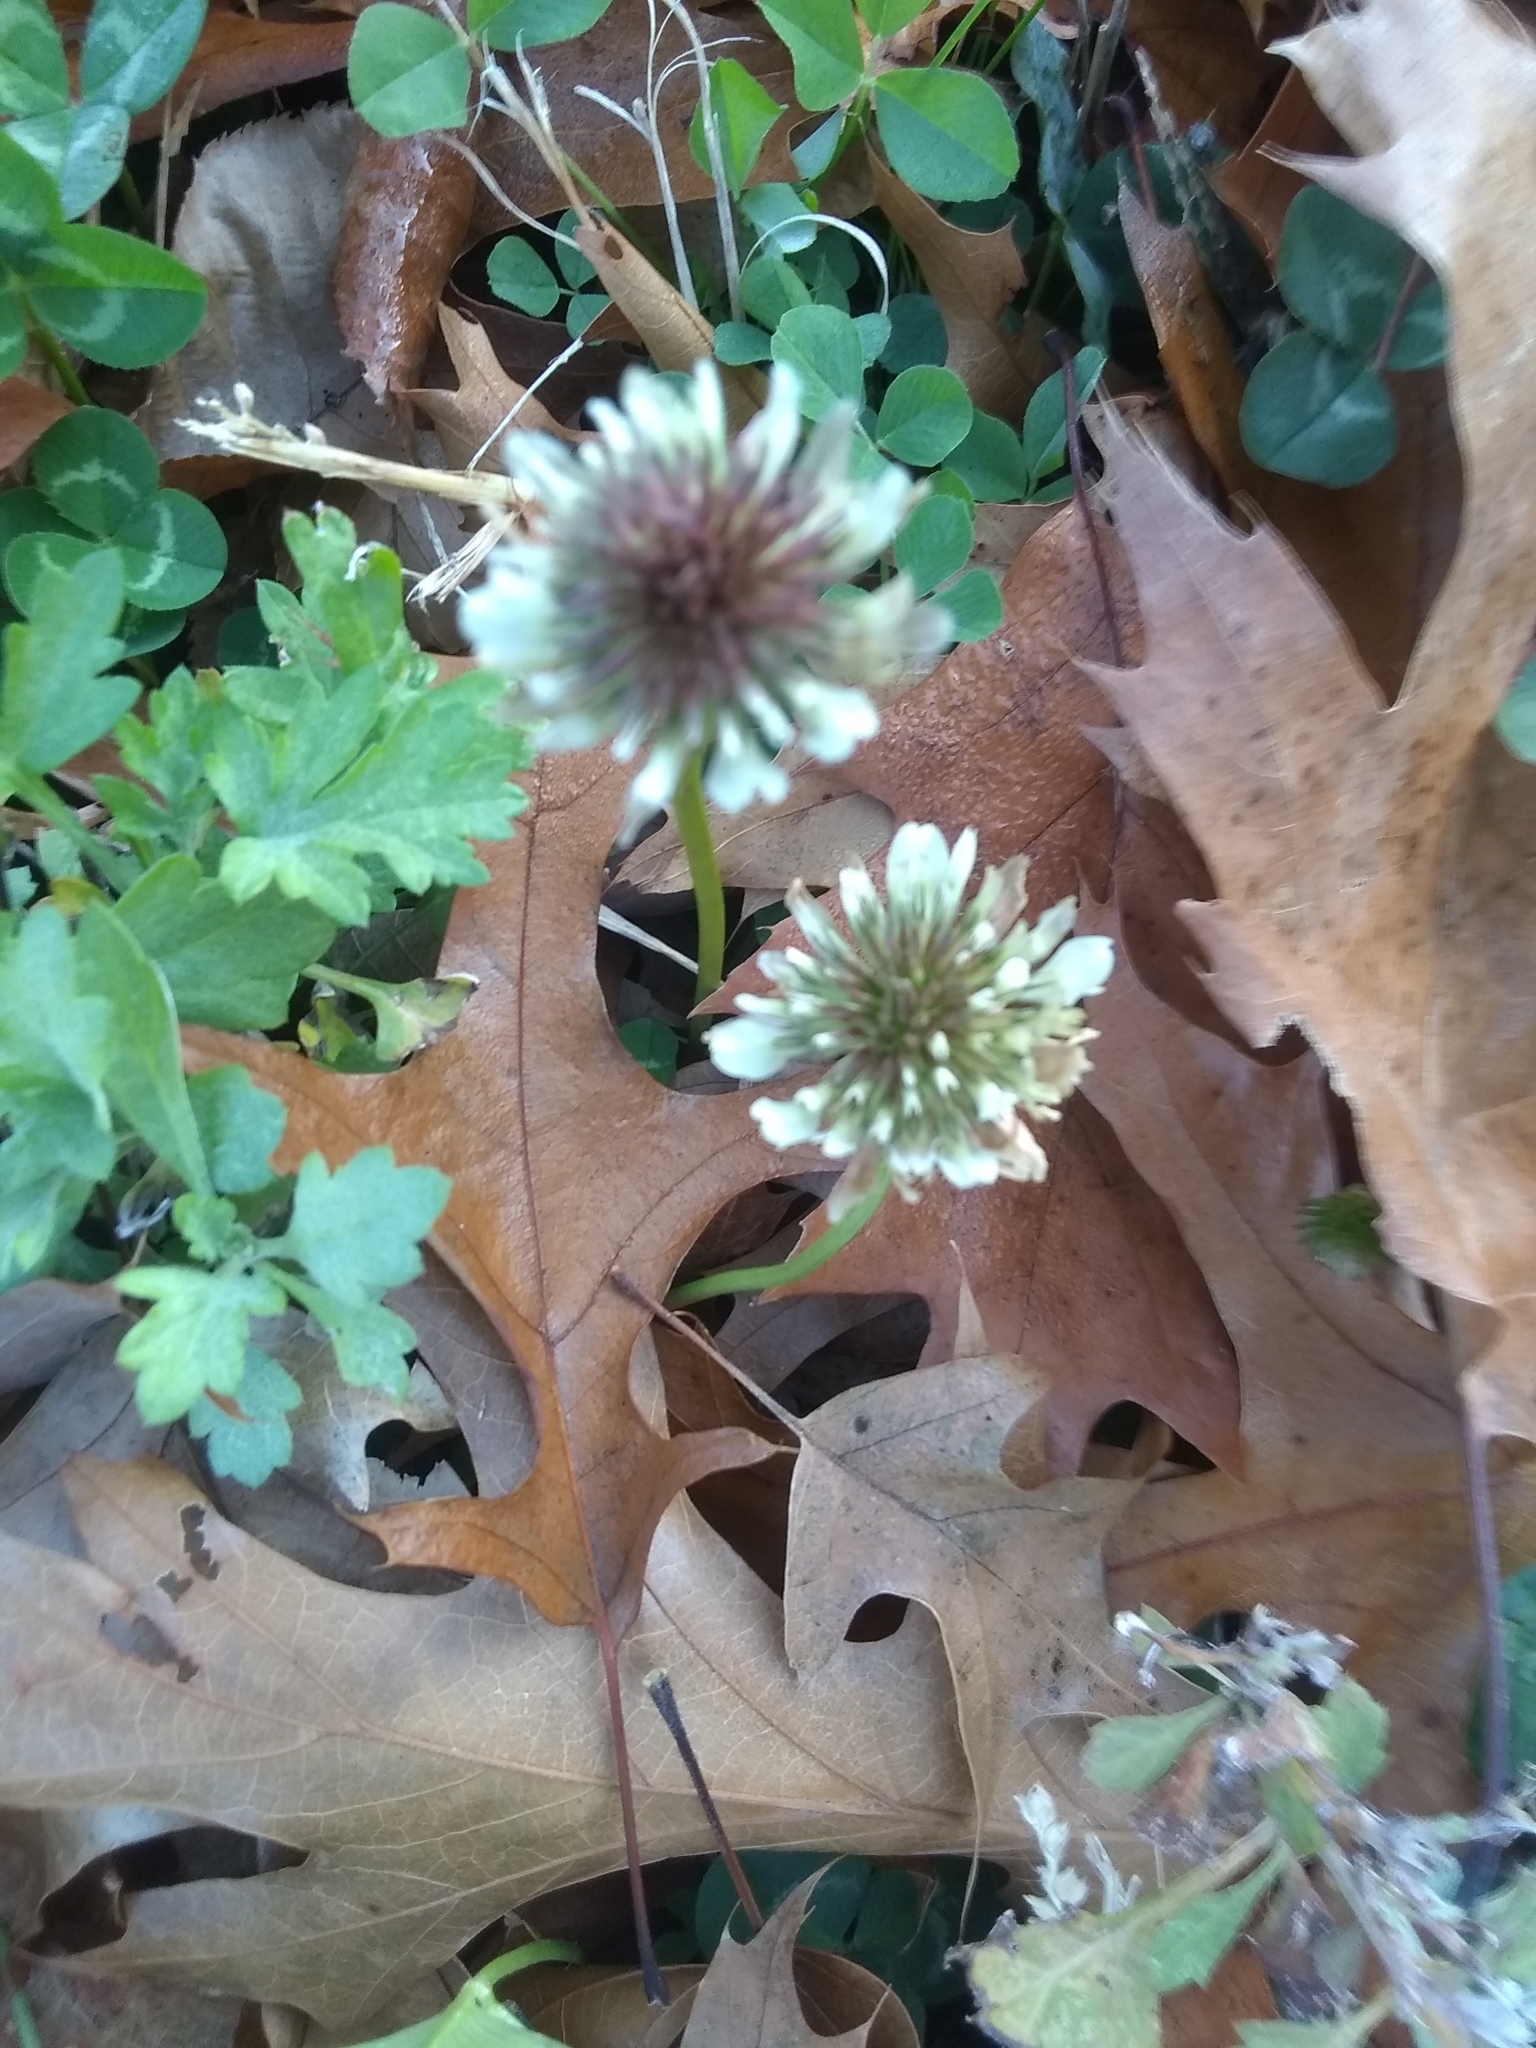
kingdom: Plantae
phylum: Tracheophyta
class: Magnoliopsida
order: Fabales
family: Fabaceae
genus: Trifolium
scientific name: Trifolium repens
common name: White clover
